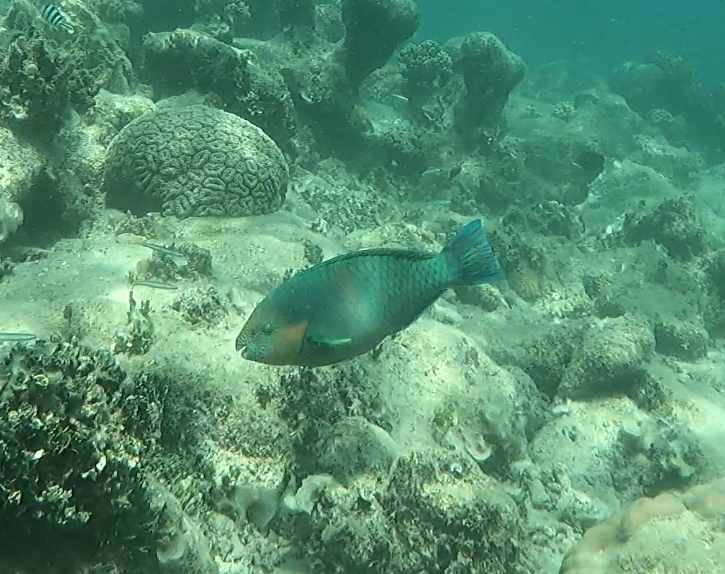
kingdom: Animalia
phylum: Chordata
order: Perciformes
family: Scaridae
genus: Scarus
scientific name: Scarus rivulatus
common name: Surf parrotfish
